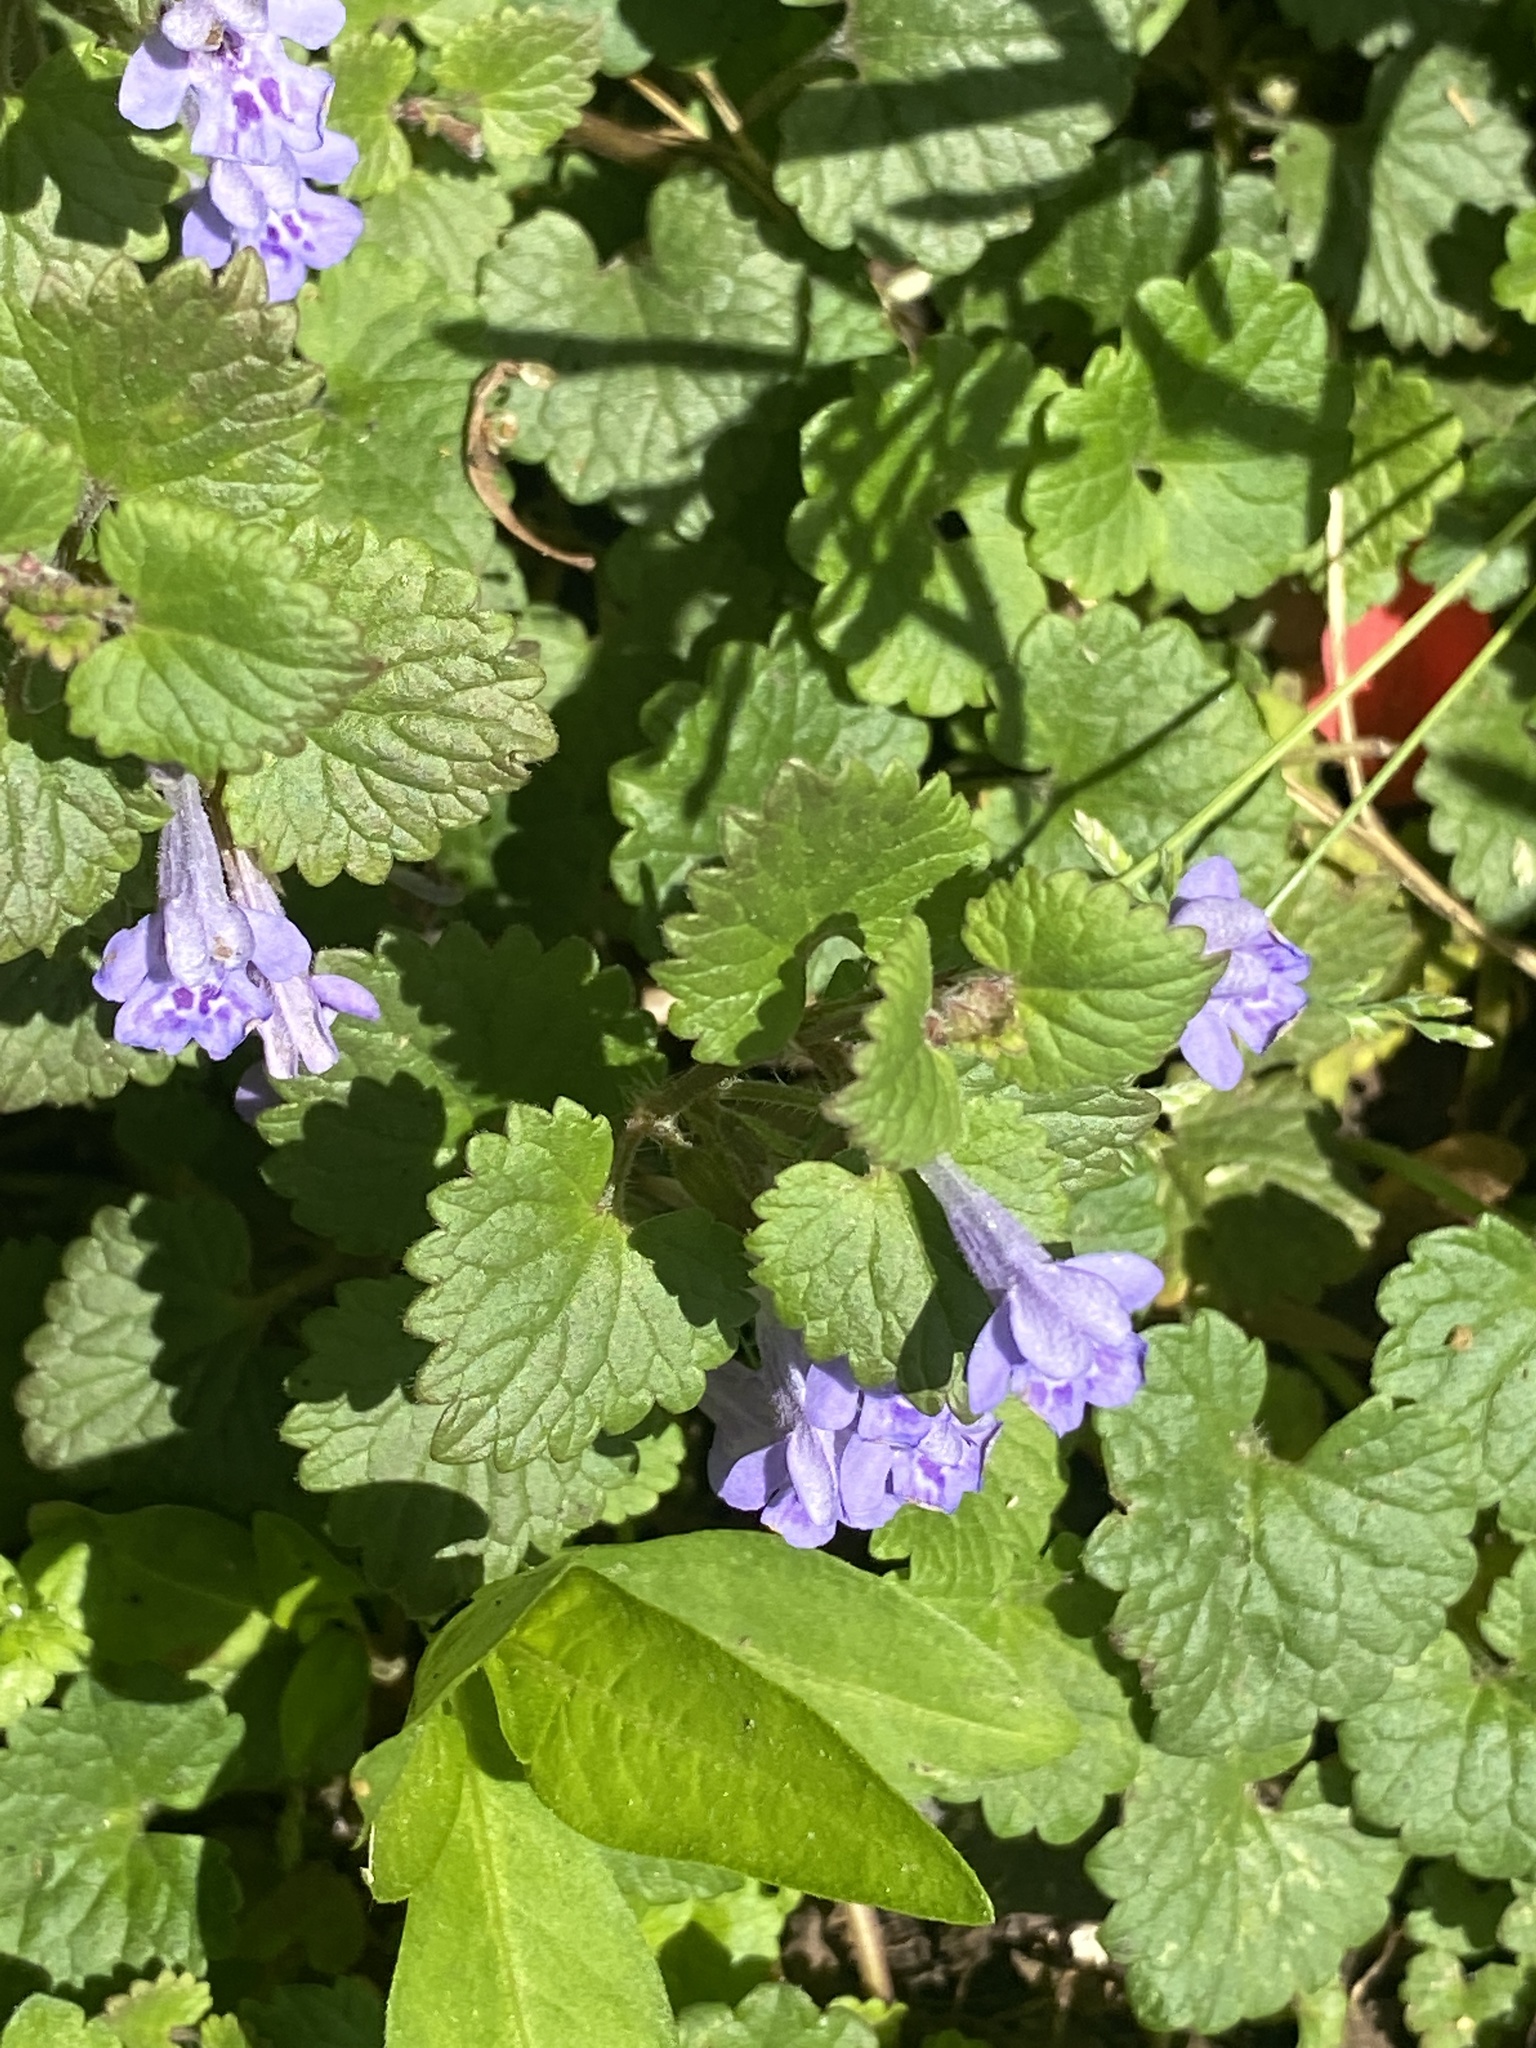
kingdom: Plantae
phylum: Tracheophyta
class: Magnoliopsida
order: Lamiales
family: Lamiaceae
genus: Glechoma
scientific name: Glechoma hederacea
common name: Ground ivy
